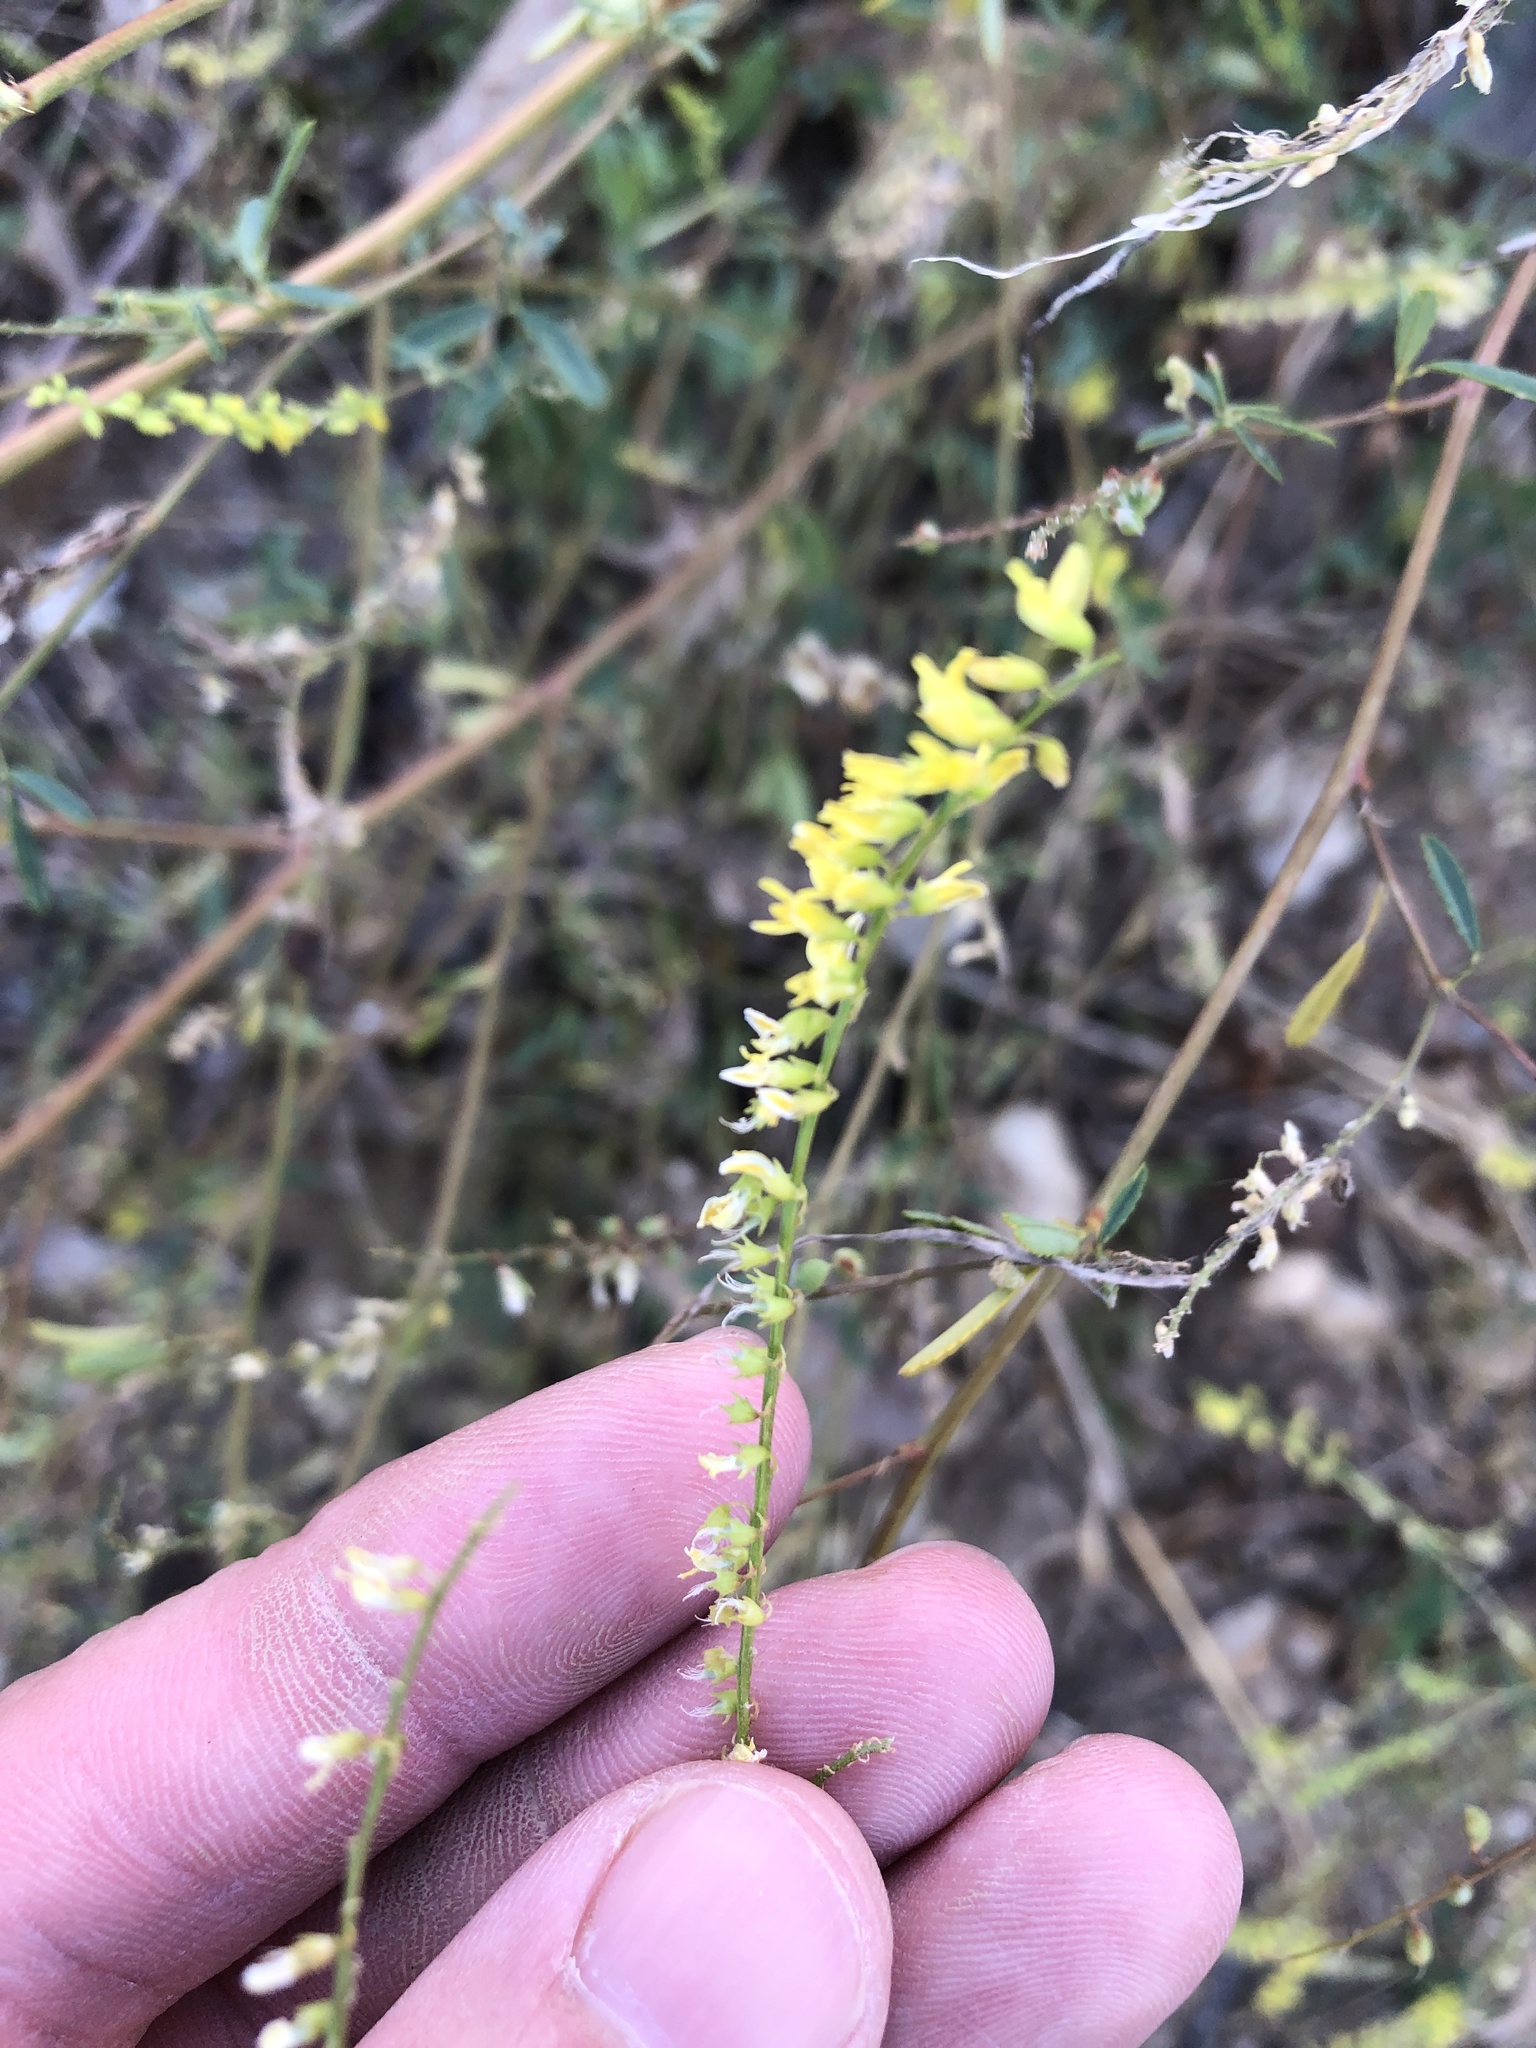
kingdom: Plantae
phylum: Tracheophyta
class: Magnoliopsida
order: Fabales
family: Fabaceae
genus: Melilotus
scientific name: Melilotus officinalis
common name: Sweetclover
